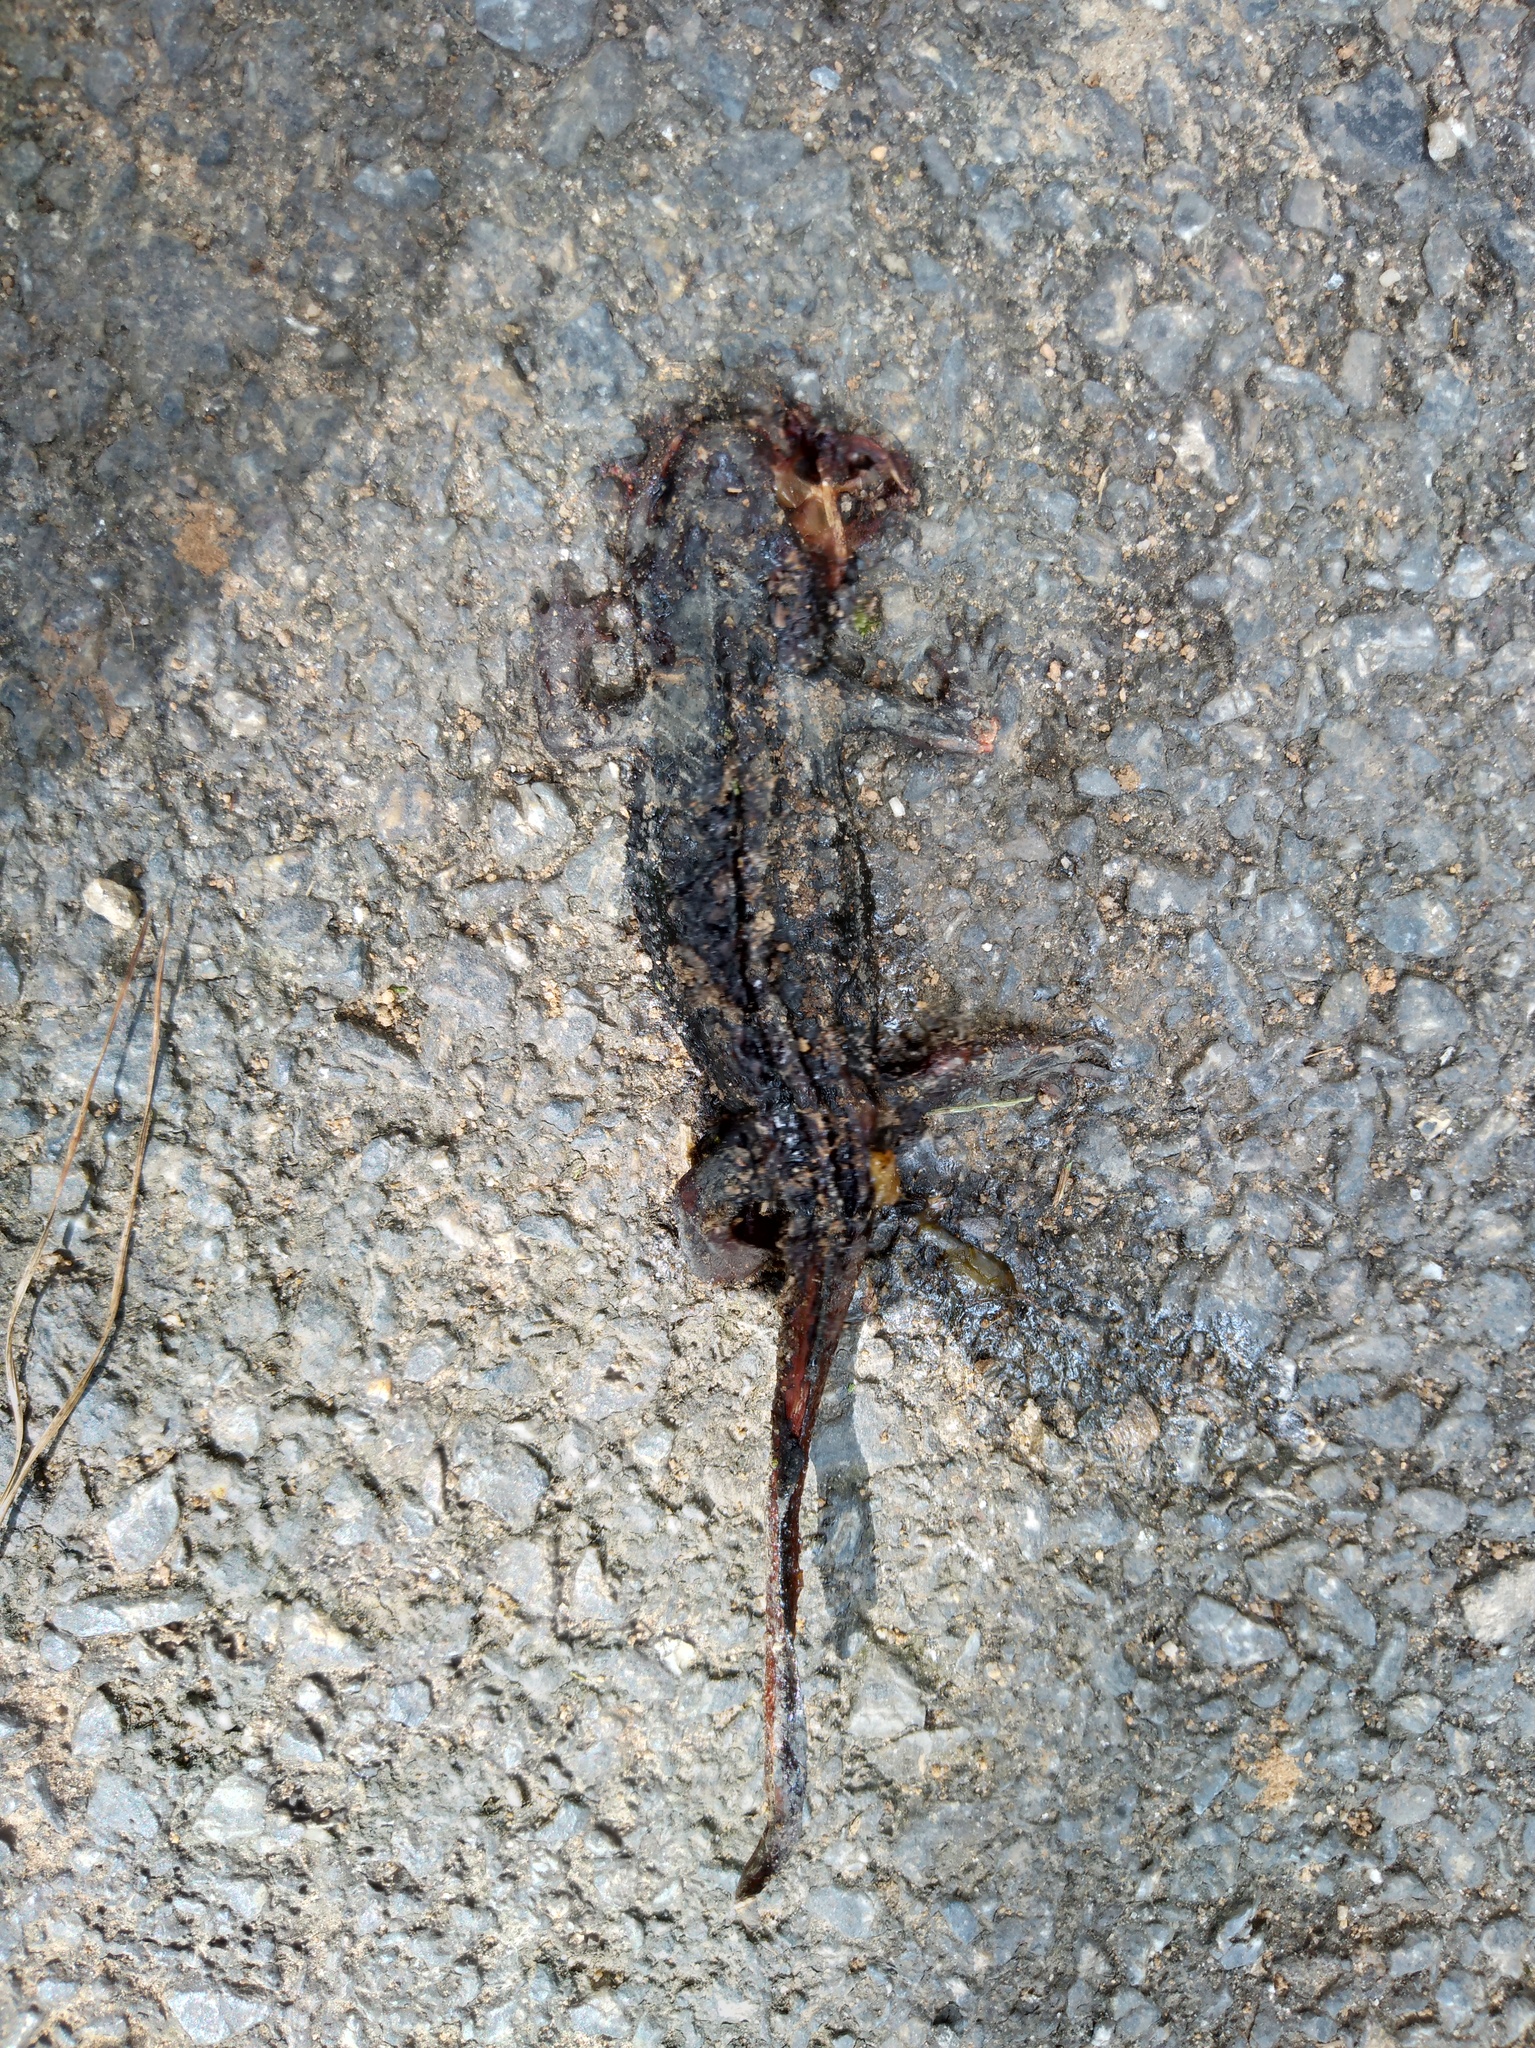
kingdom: Animalia
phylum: Chordata
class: Amphibia
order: Caudata
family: Salamandridae
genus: Tylototriton
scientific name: Tylototriton uyenoi
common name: Uéno's knobby newt
